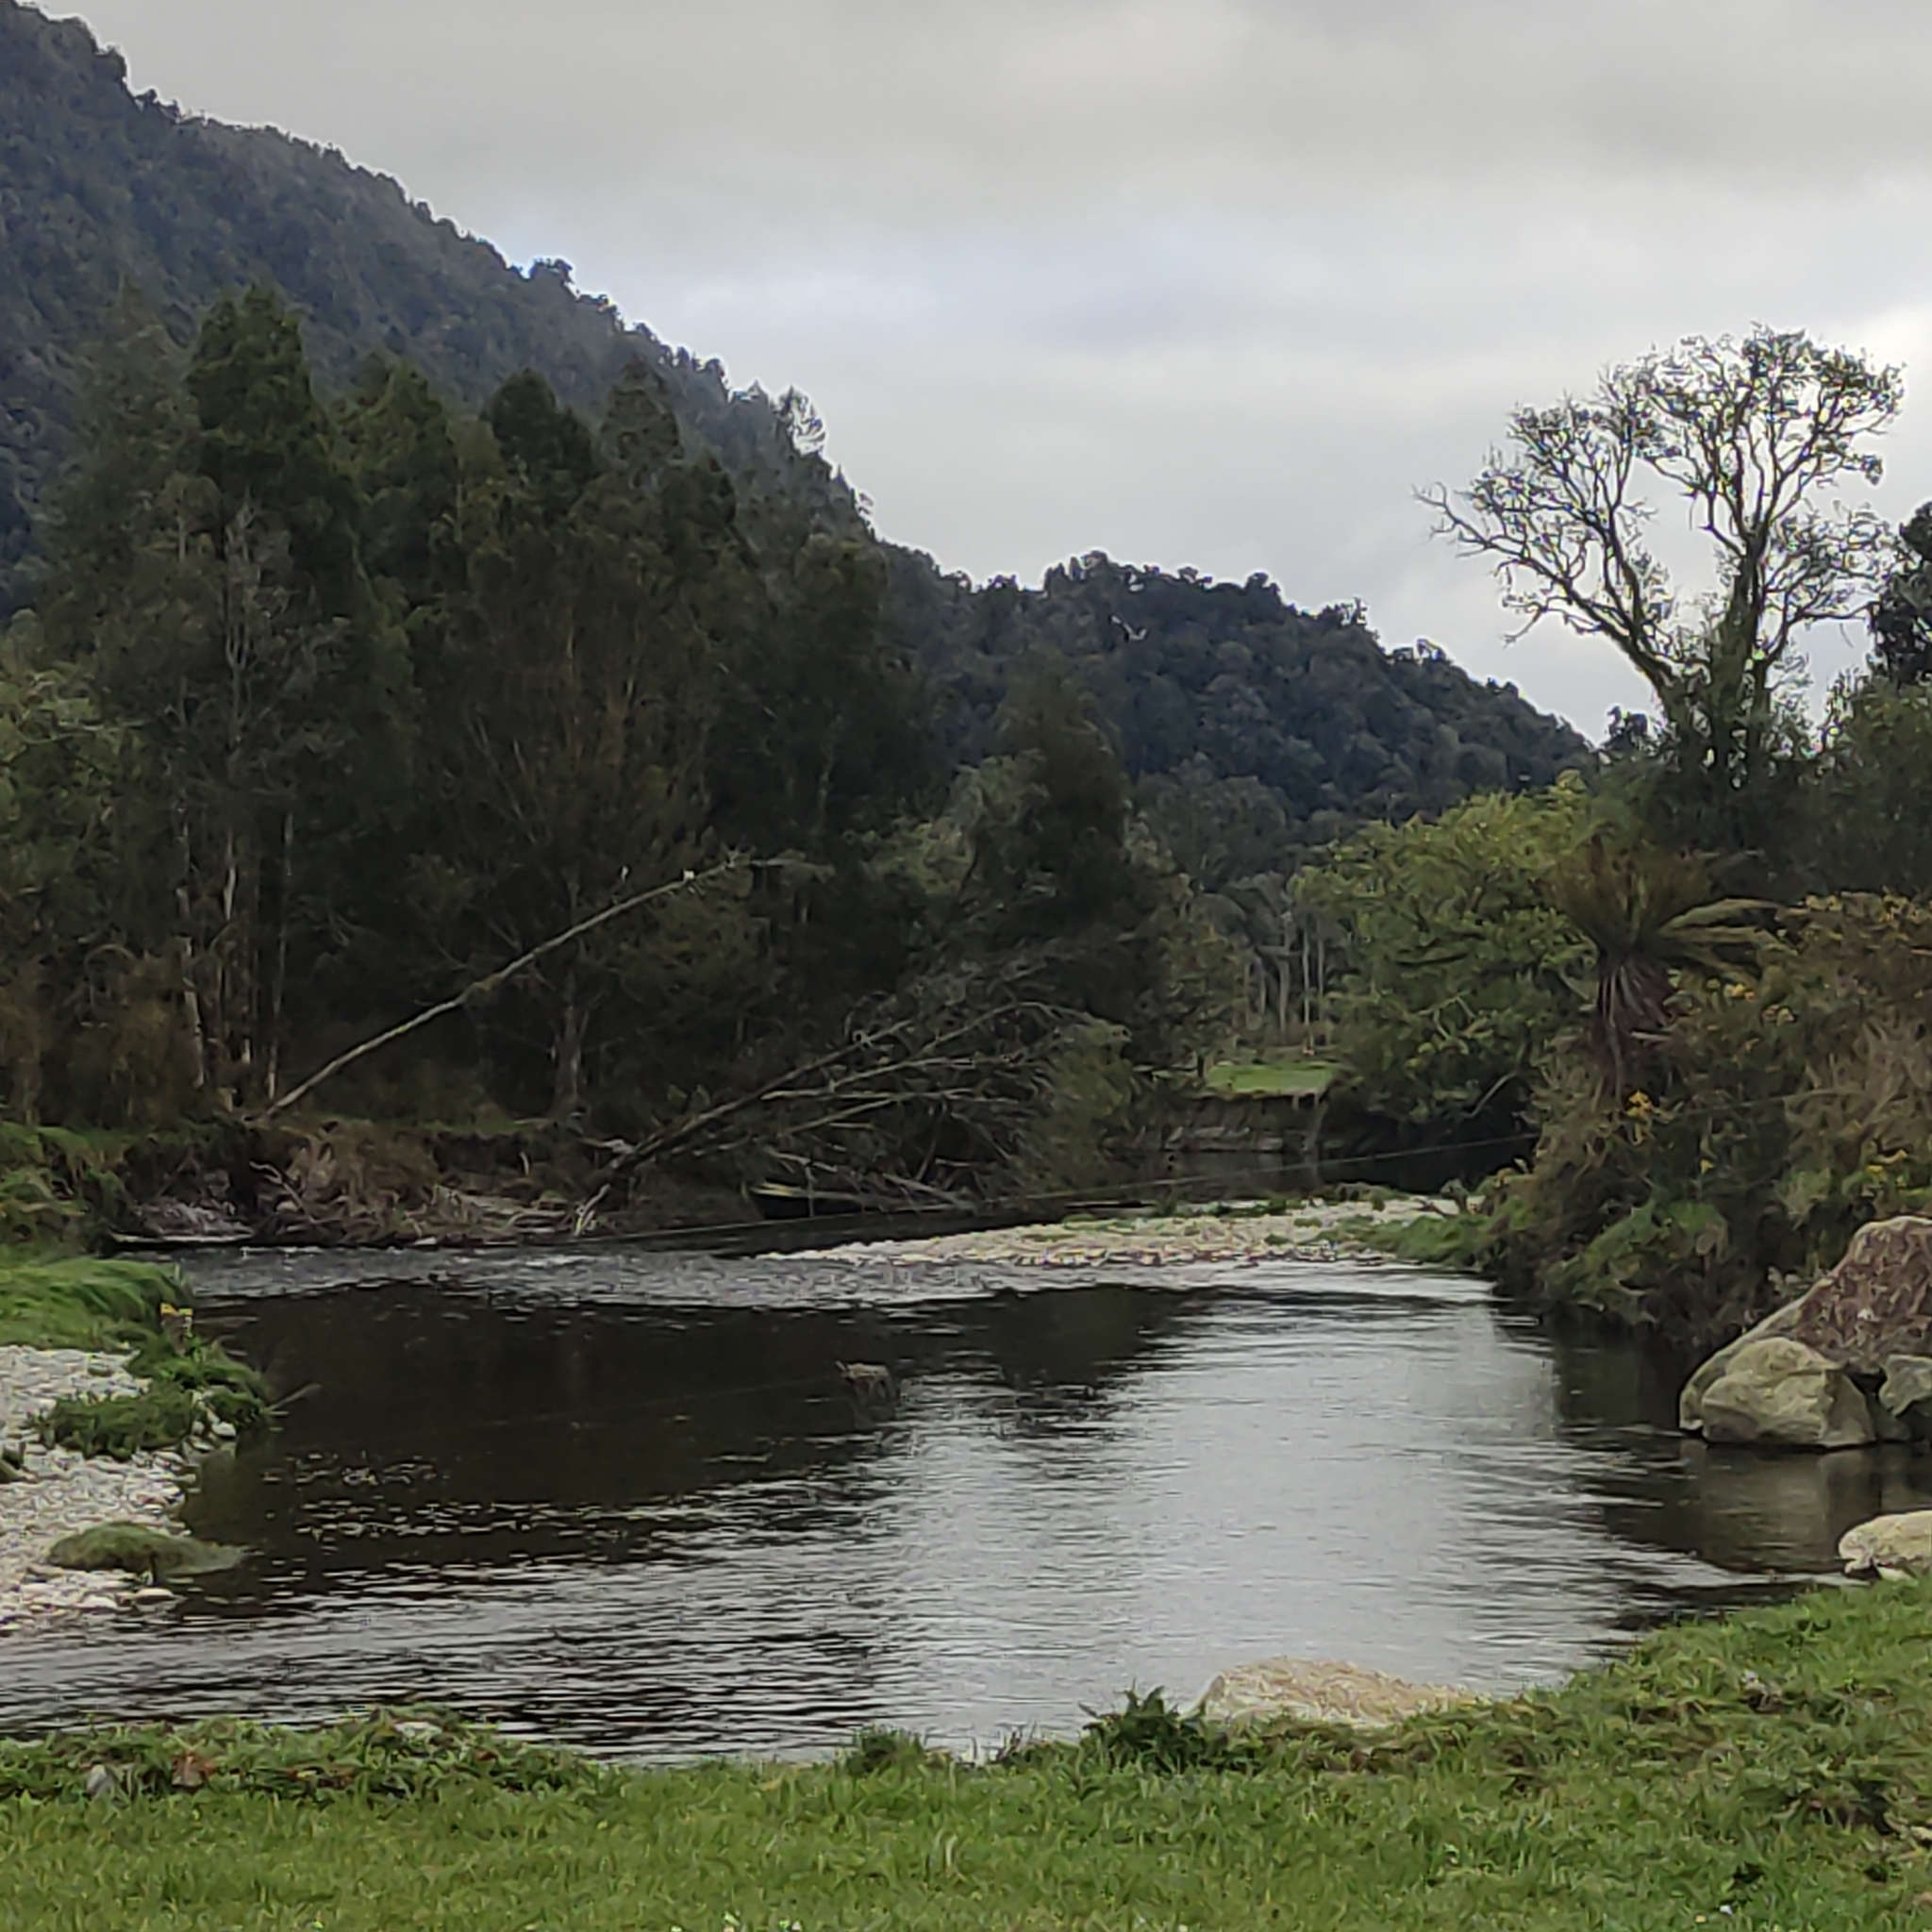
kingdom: Animalia
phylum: Chordata
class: Aves
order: Charadriiformes
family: Haematopodidae
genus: Haematopus
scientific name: Haematopus finschi
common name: South island oystercatcher
